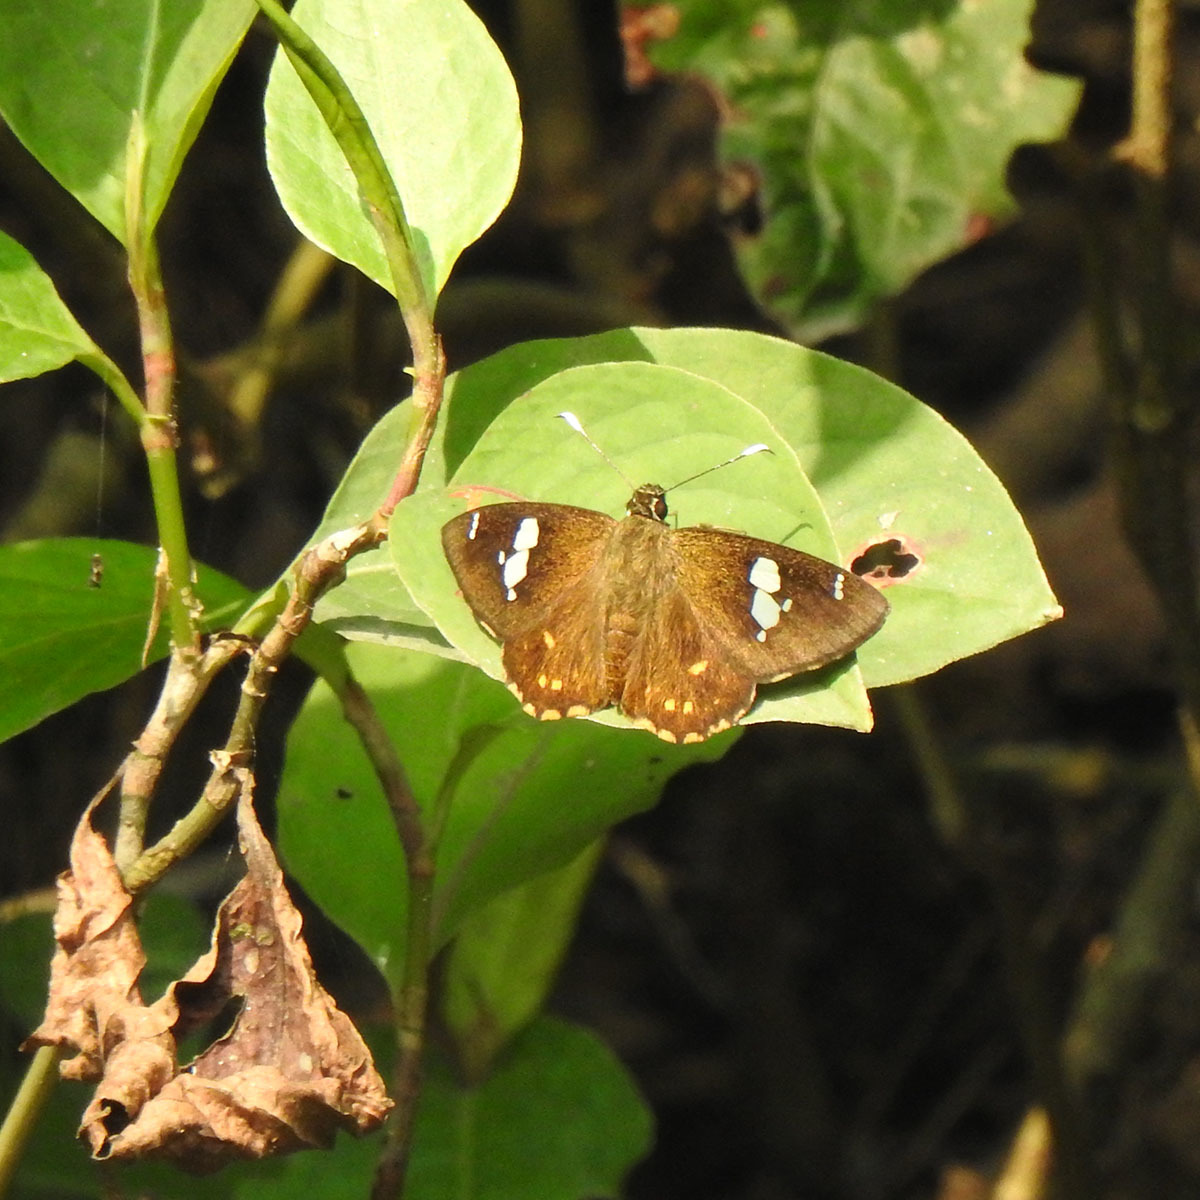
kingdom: Animalia
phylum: Arthropoda
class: Insecta
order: Lepidoptera
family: Hesperiidae
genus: Celaenorrhinus
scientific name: Celaenorrhinus putra
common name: Restricted spotted flat
